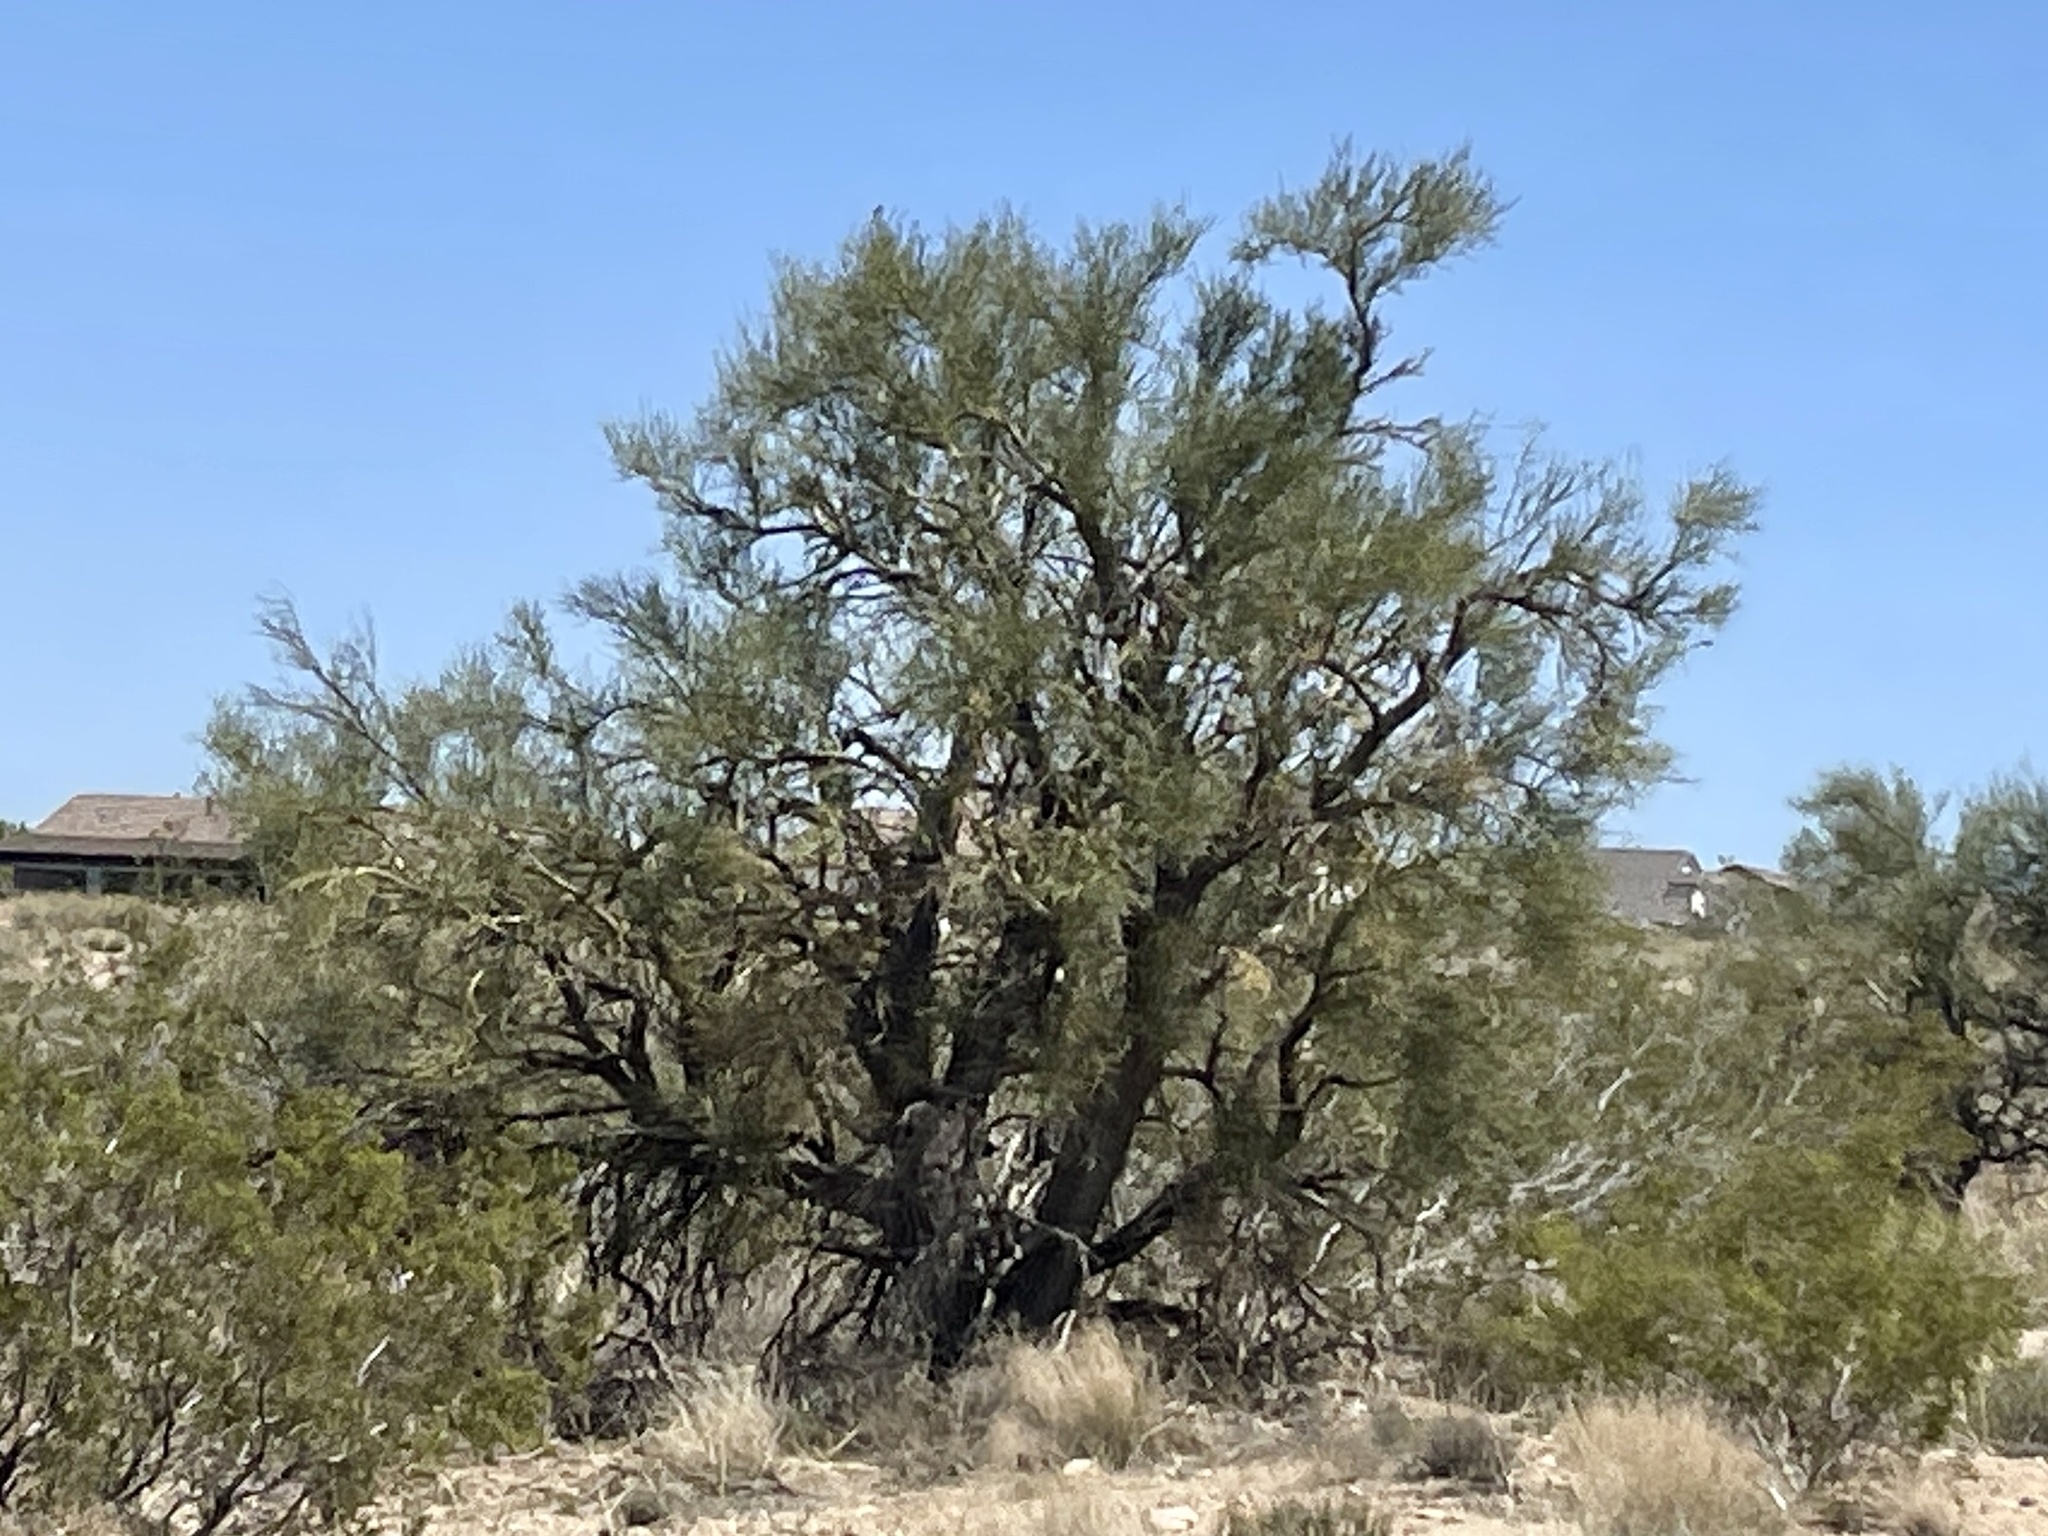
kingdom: Plantae
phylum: Tracheophyta
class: Magnoliopsida
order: Celastrales
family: Celastraceae
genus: Canotia
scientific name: Canotia holacantha
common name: Crucifixion thorns
